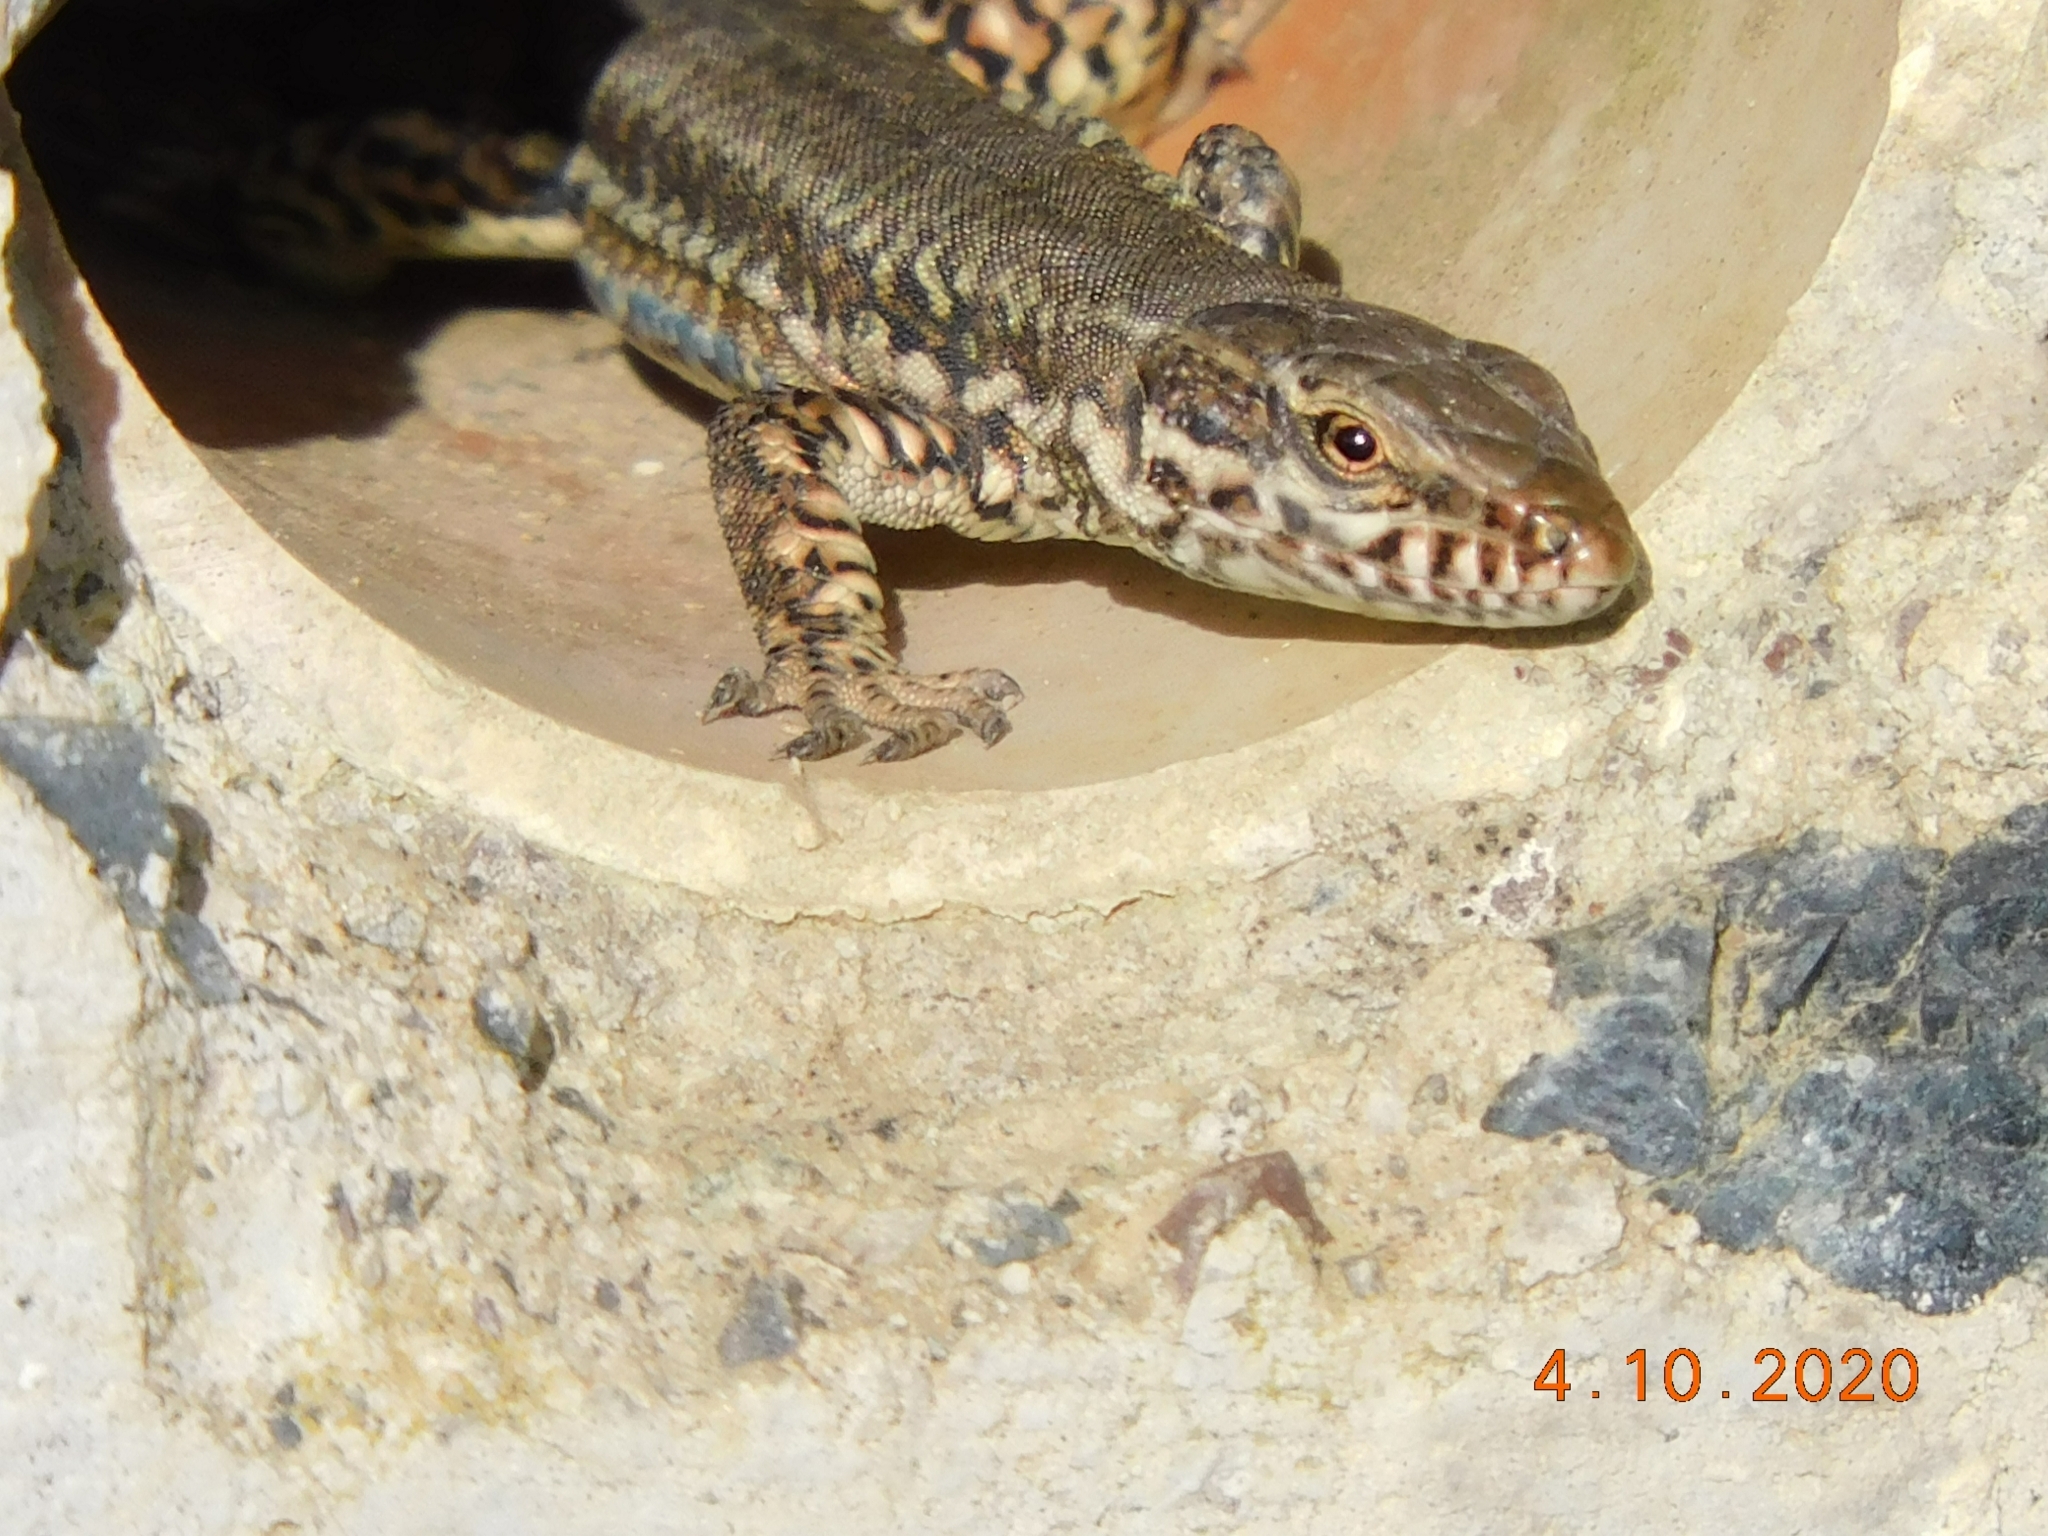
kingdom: Animalia
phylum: Chordata
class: Squamata
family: Lacertidae
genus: Podarcis
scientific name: Podarcis muralis
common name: Common wall lizard
